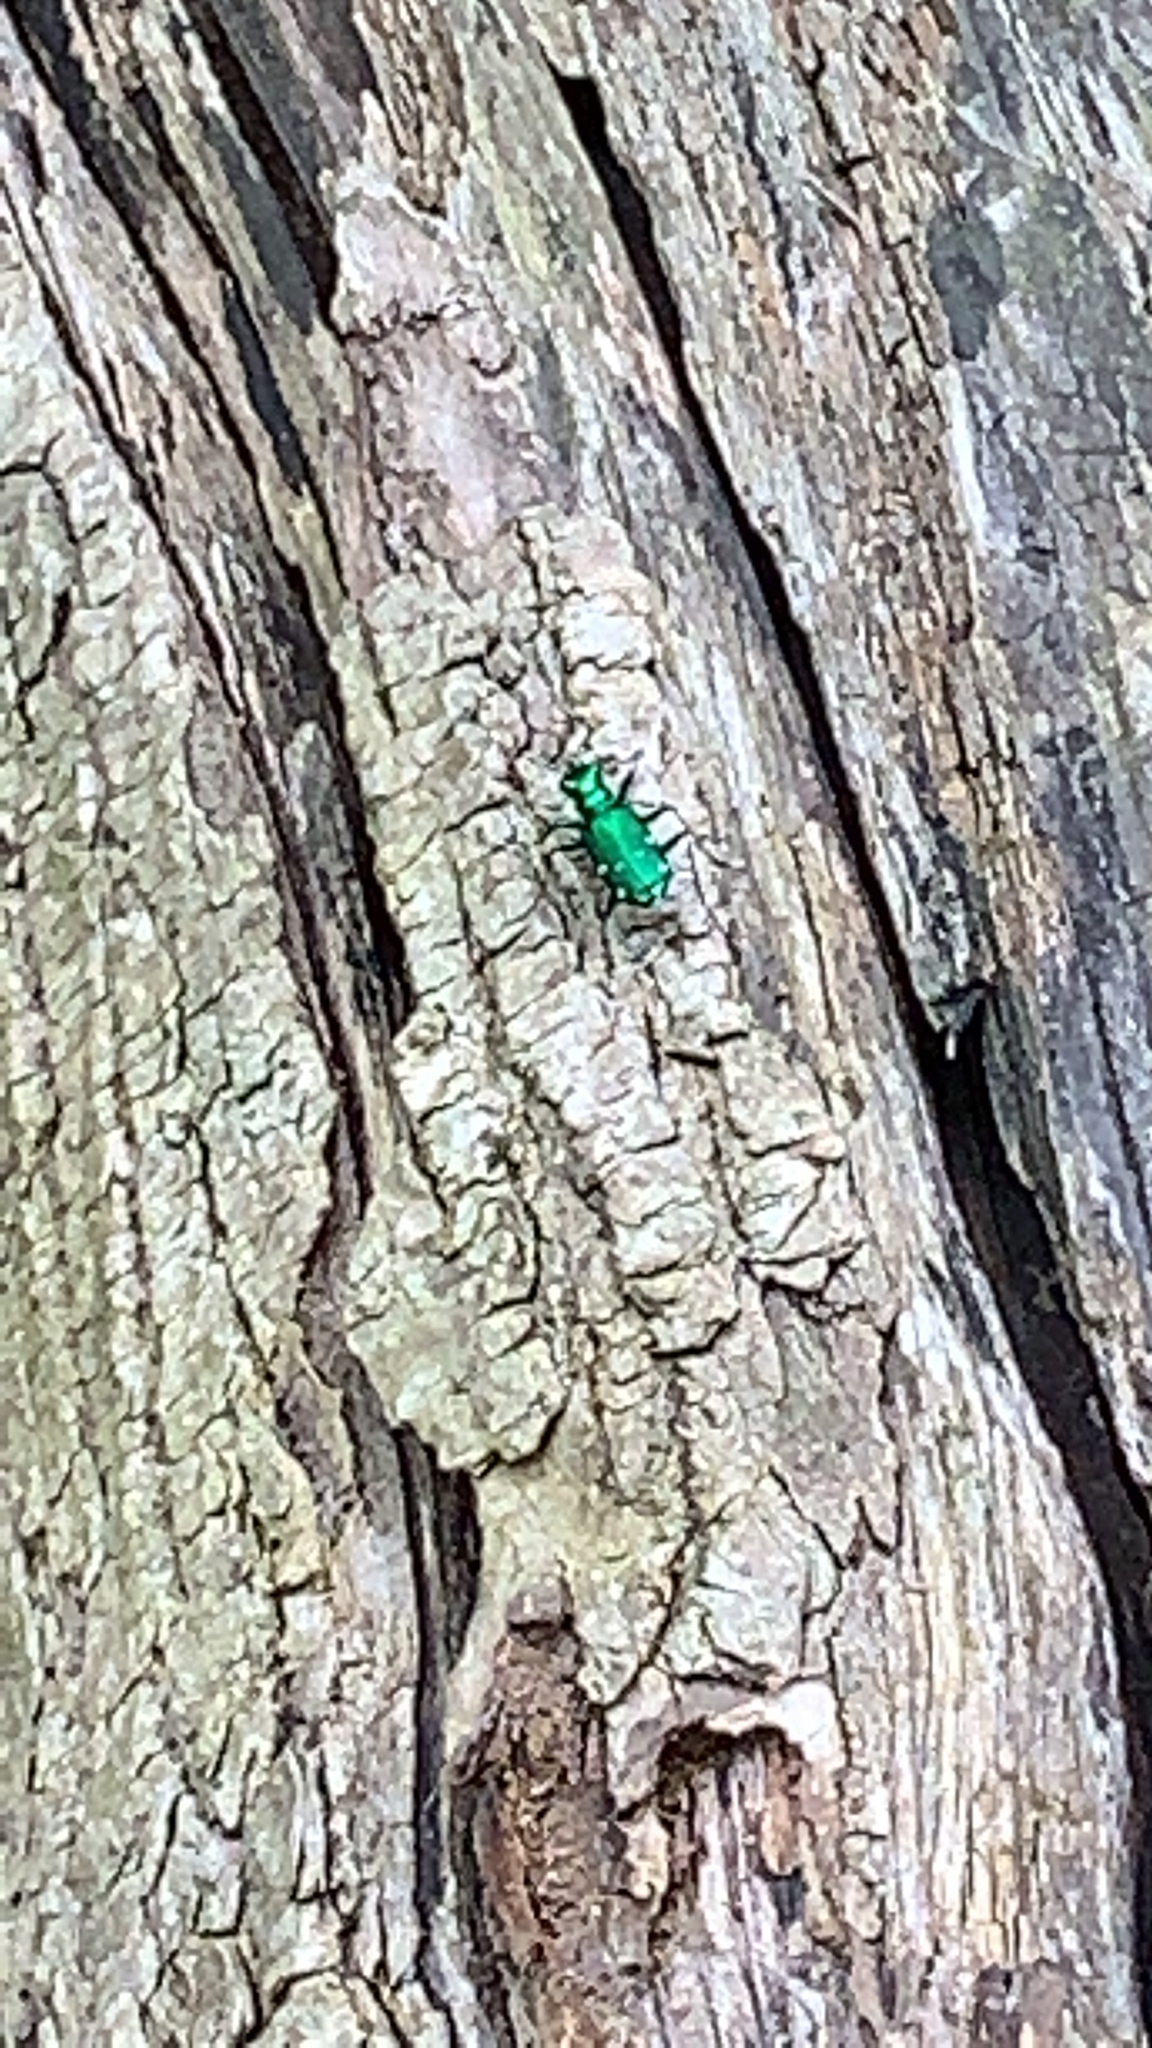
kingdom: Animalia
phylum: Arthropoda
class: Insecta
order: Coleoptera
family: Carabidae
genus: Cicindela
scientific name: Cicindela sexguttata
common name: Six-spotted tiger beetle
